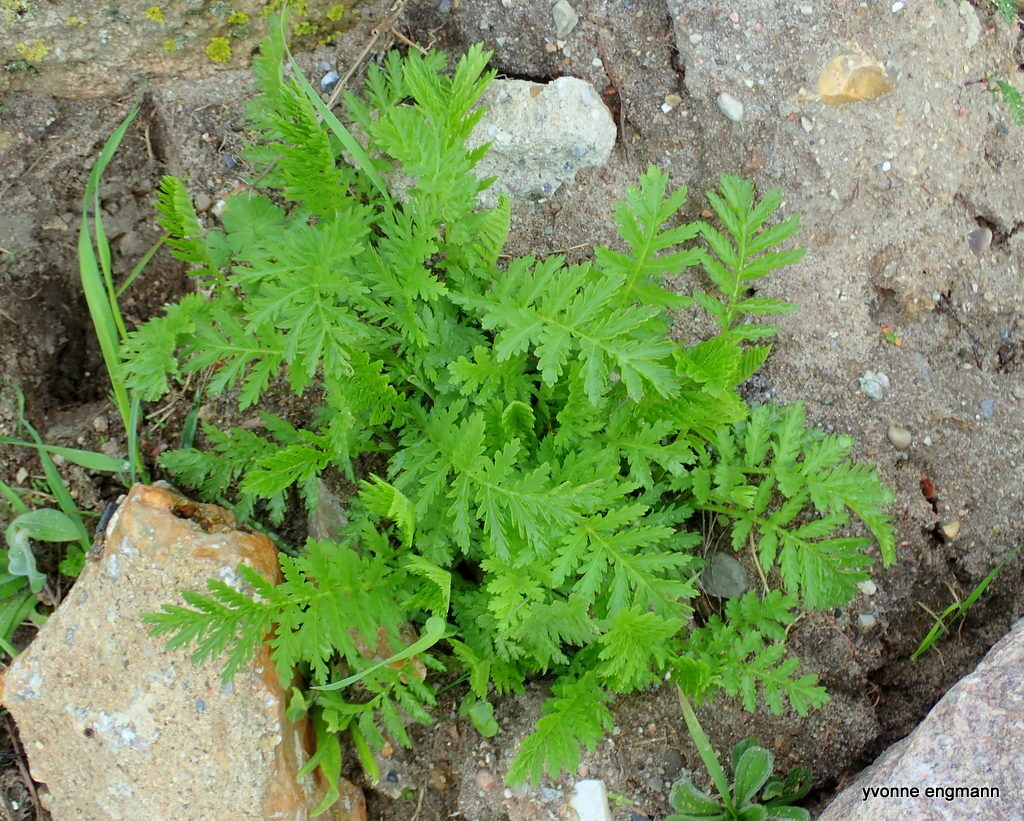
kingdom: Plantae
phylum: Tracheophyta
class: Magnoliopsida
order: Asterales
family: Asteraceae
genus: Tanacetum
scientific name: Tanacetum vulgare
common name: Common tansy
